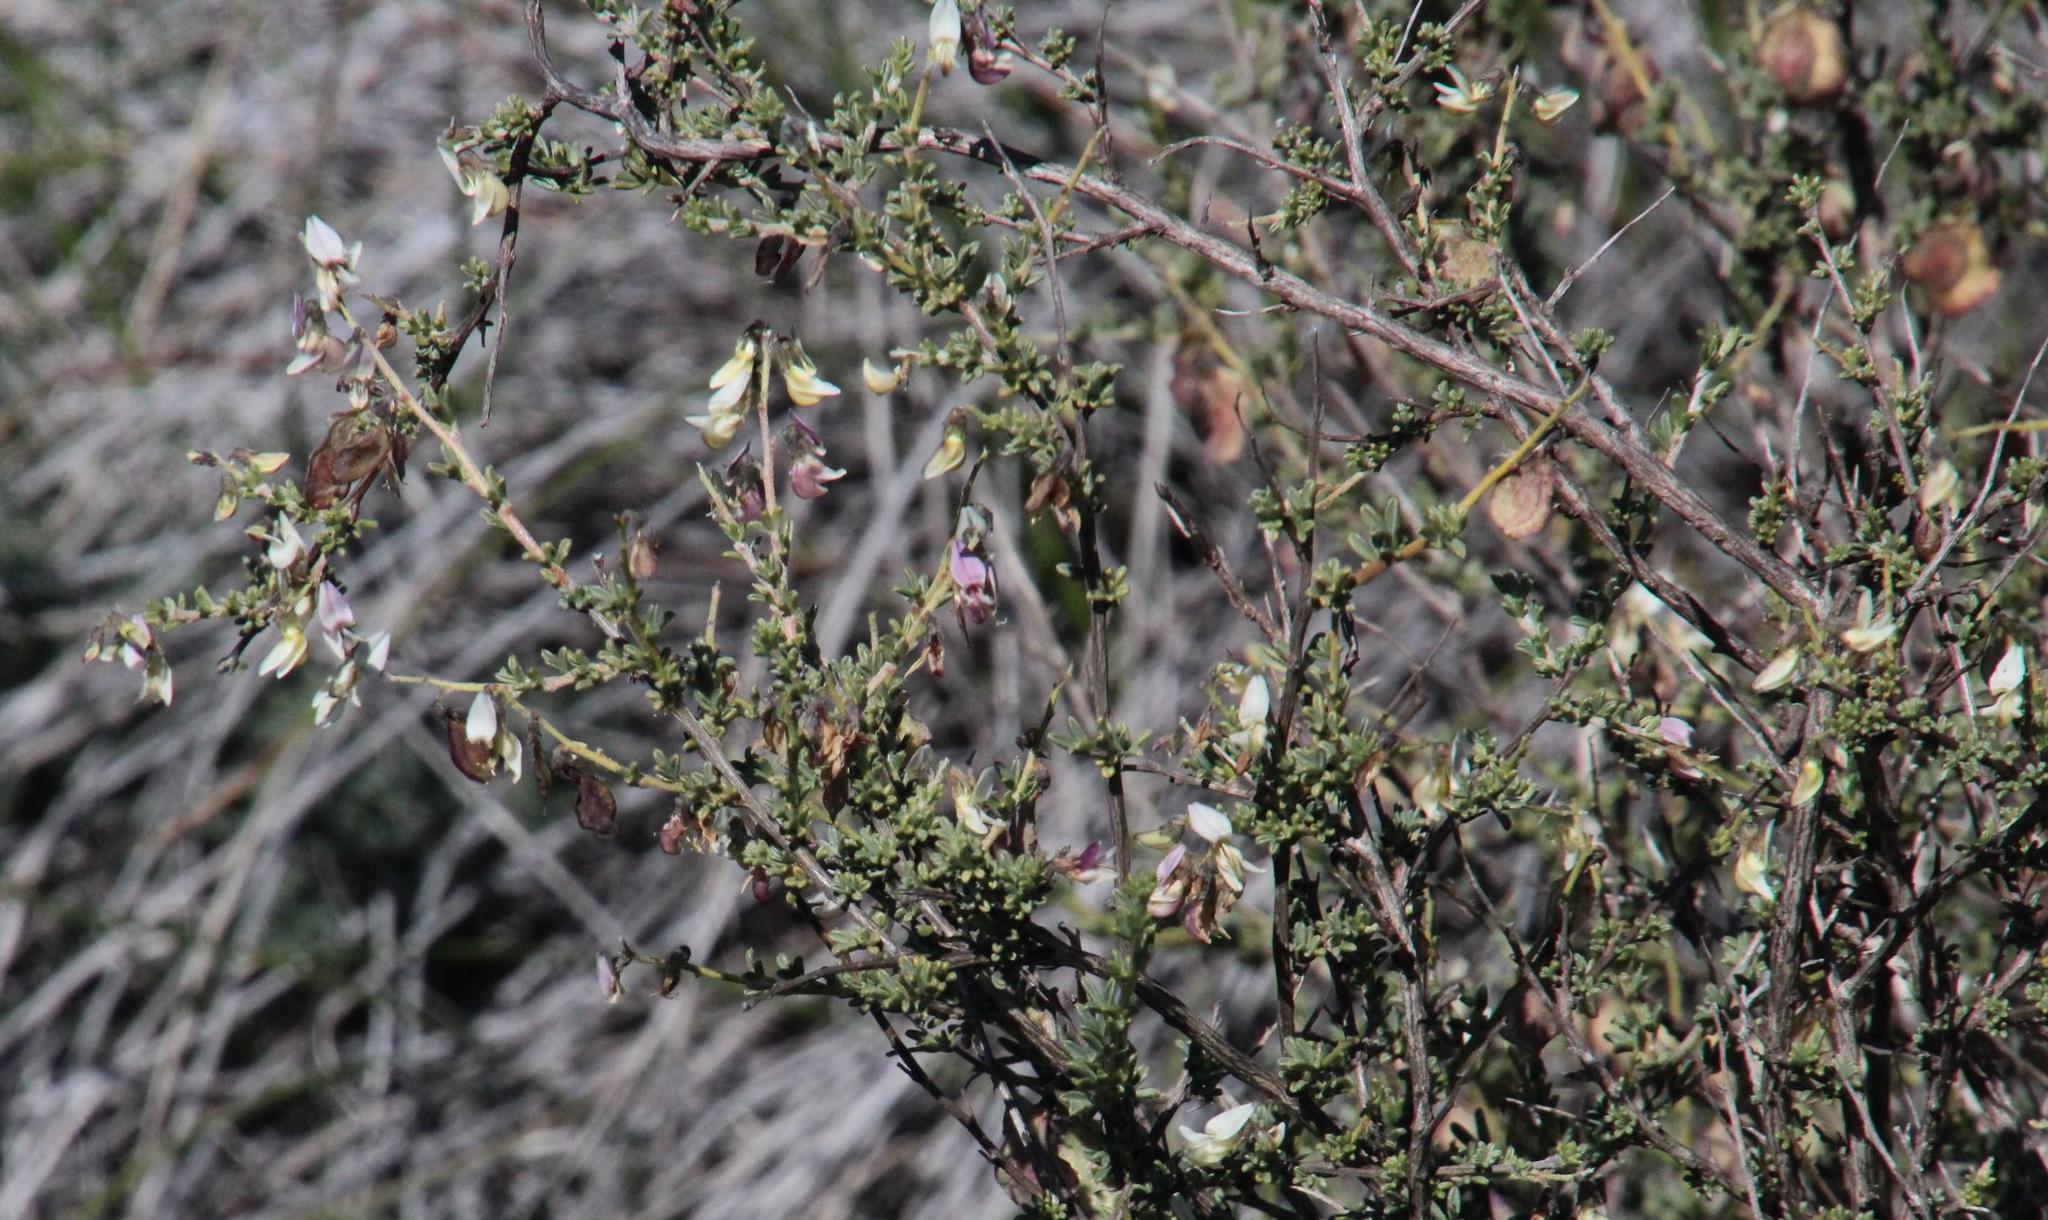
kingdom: Plantae
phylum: Tracheophyta
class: Magnoliopsida
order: Fabales
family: Fabaceae
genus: Wiborgia
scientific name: Wiborgia monoptera
